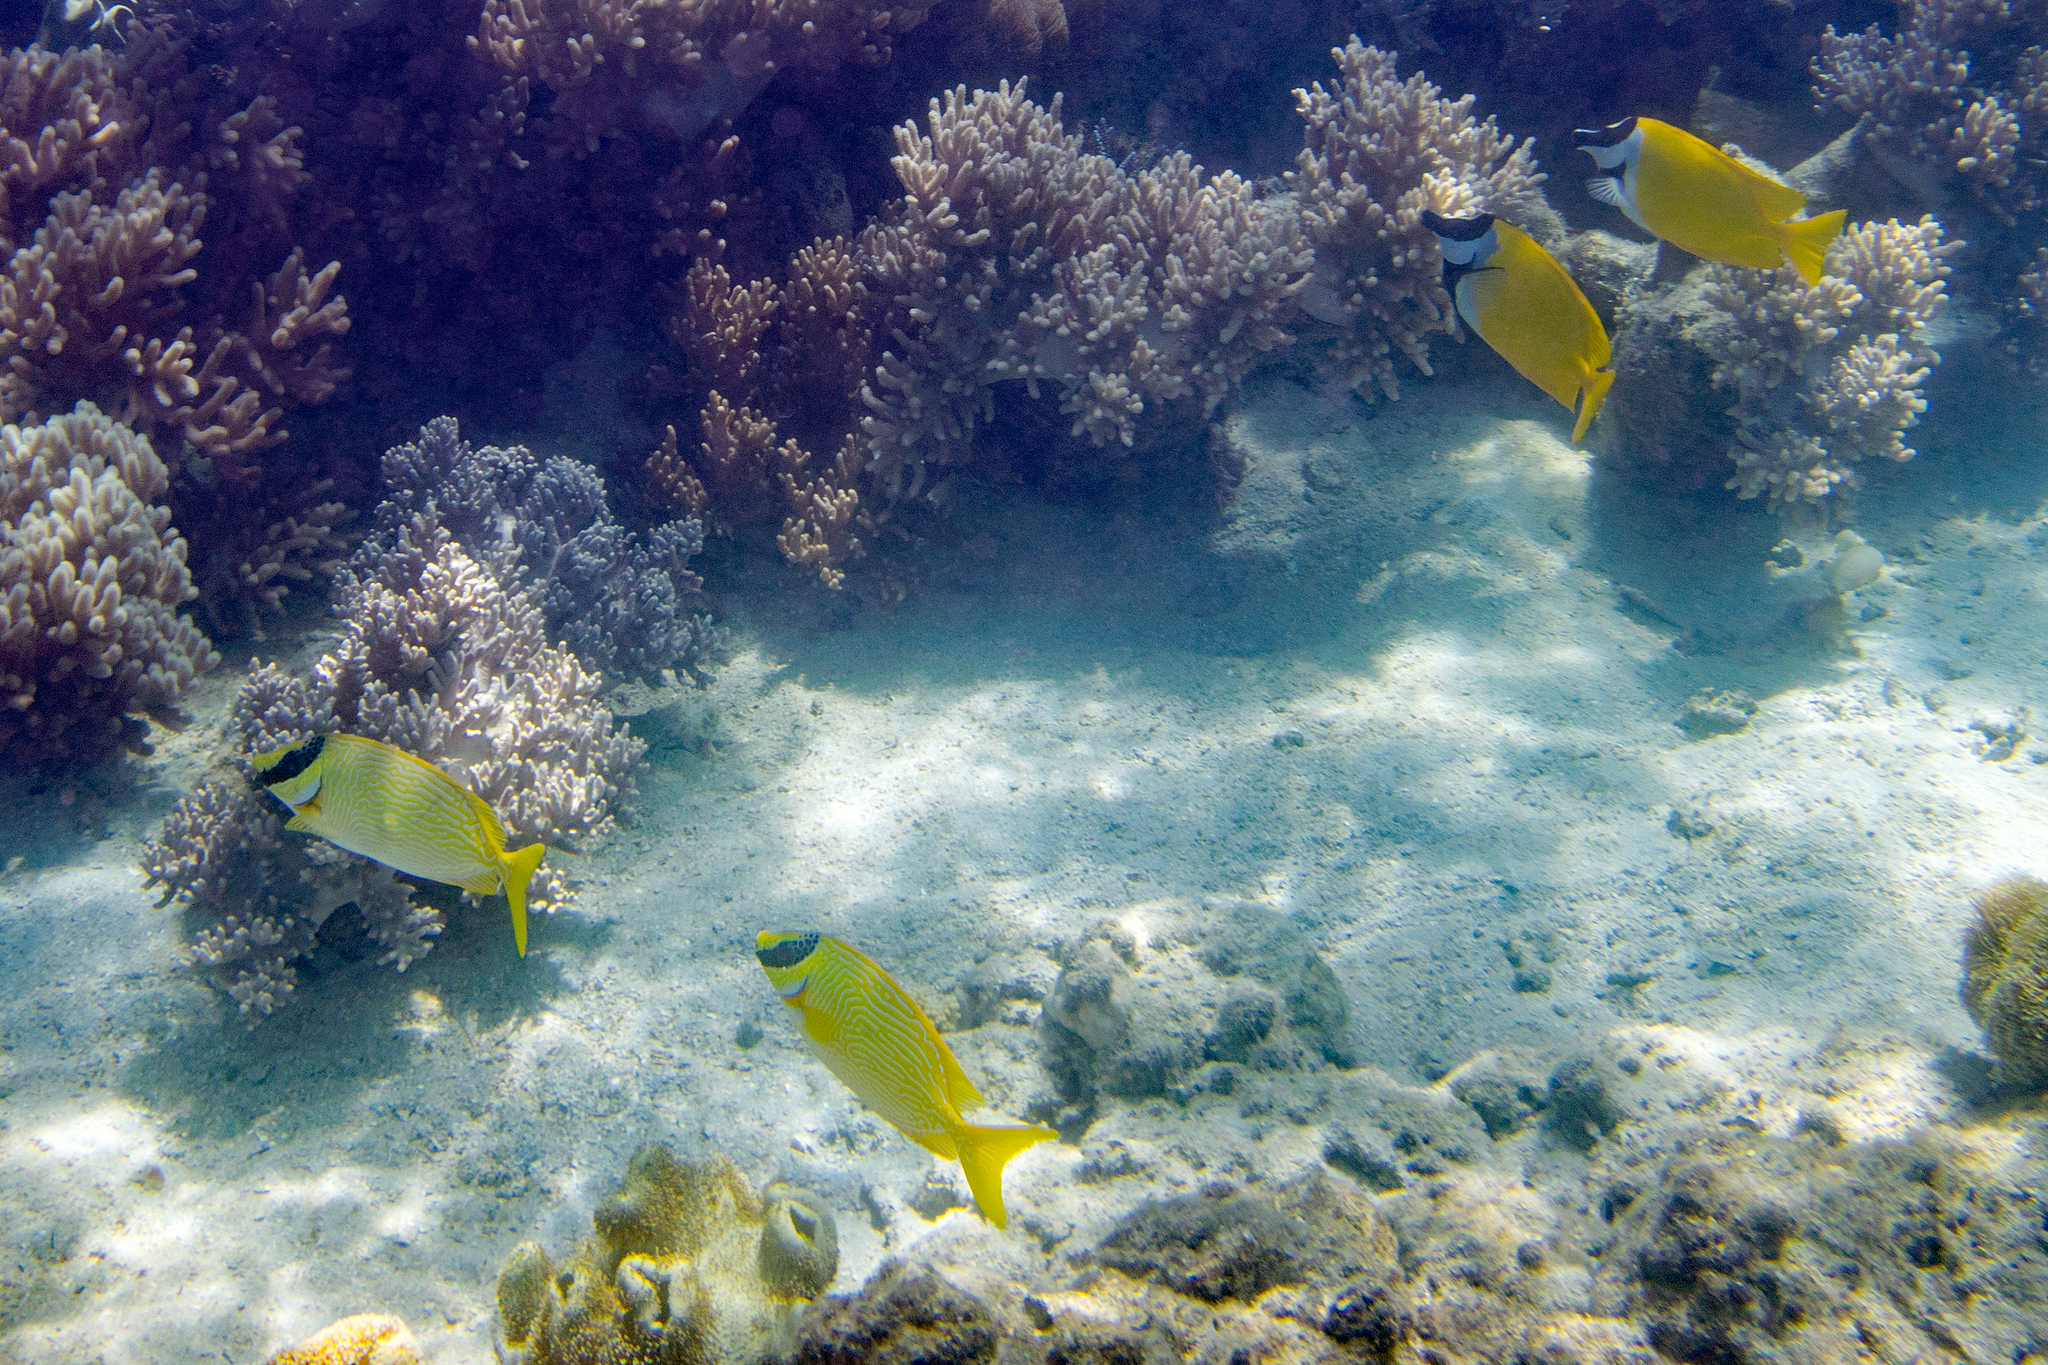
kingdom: Animalia
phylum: Chordata
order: Perciformes
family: Siganidae
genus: Siganus
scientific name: Siganus vulpinus
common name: Foxface
